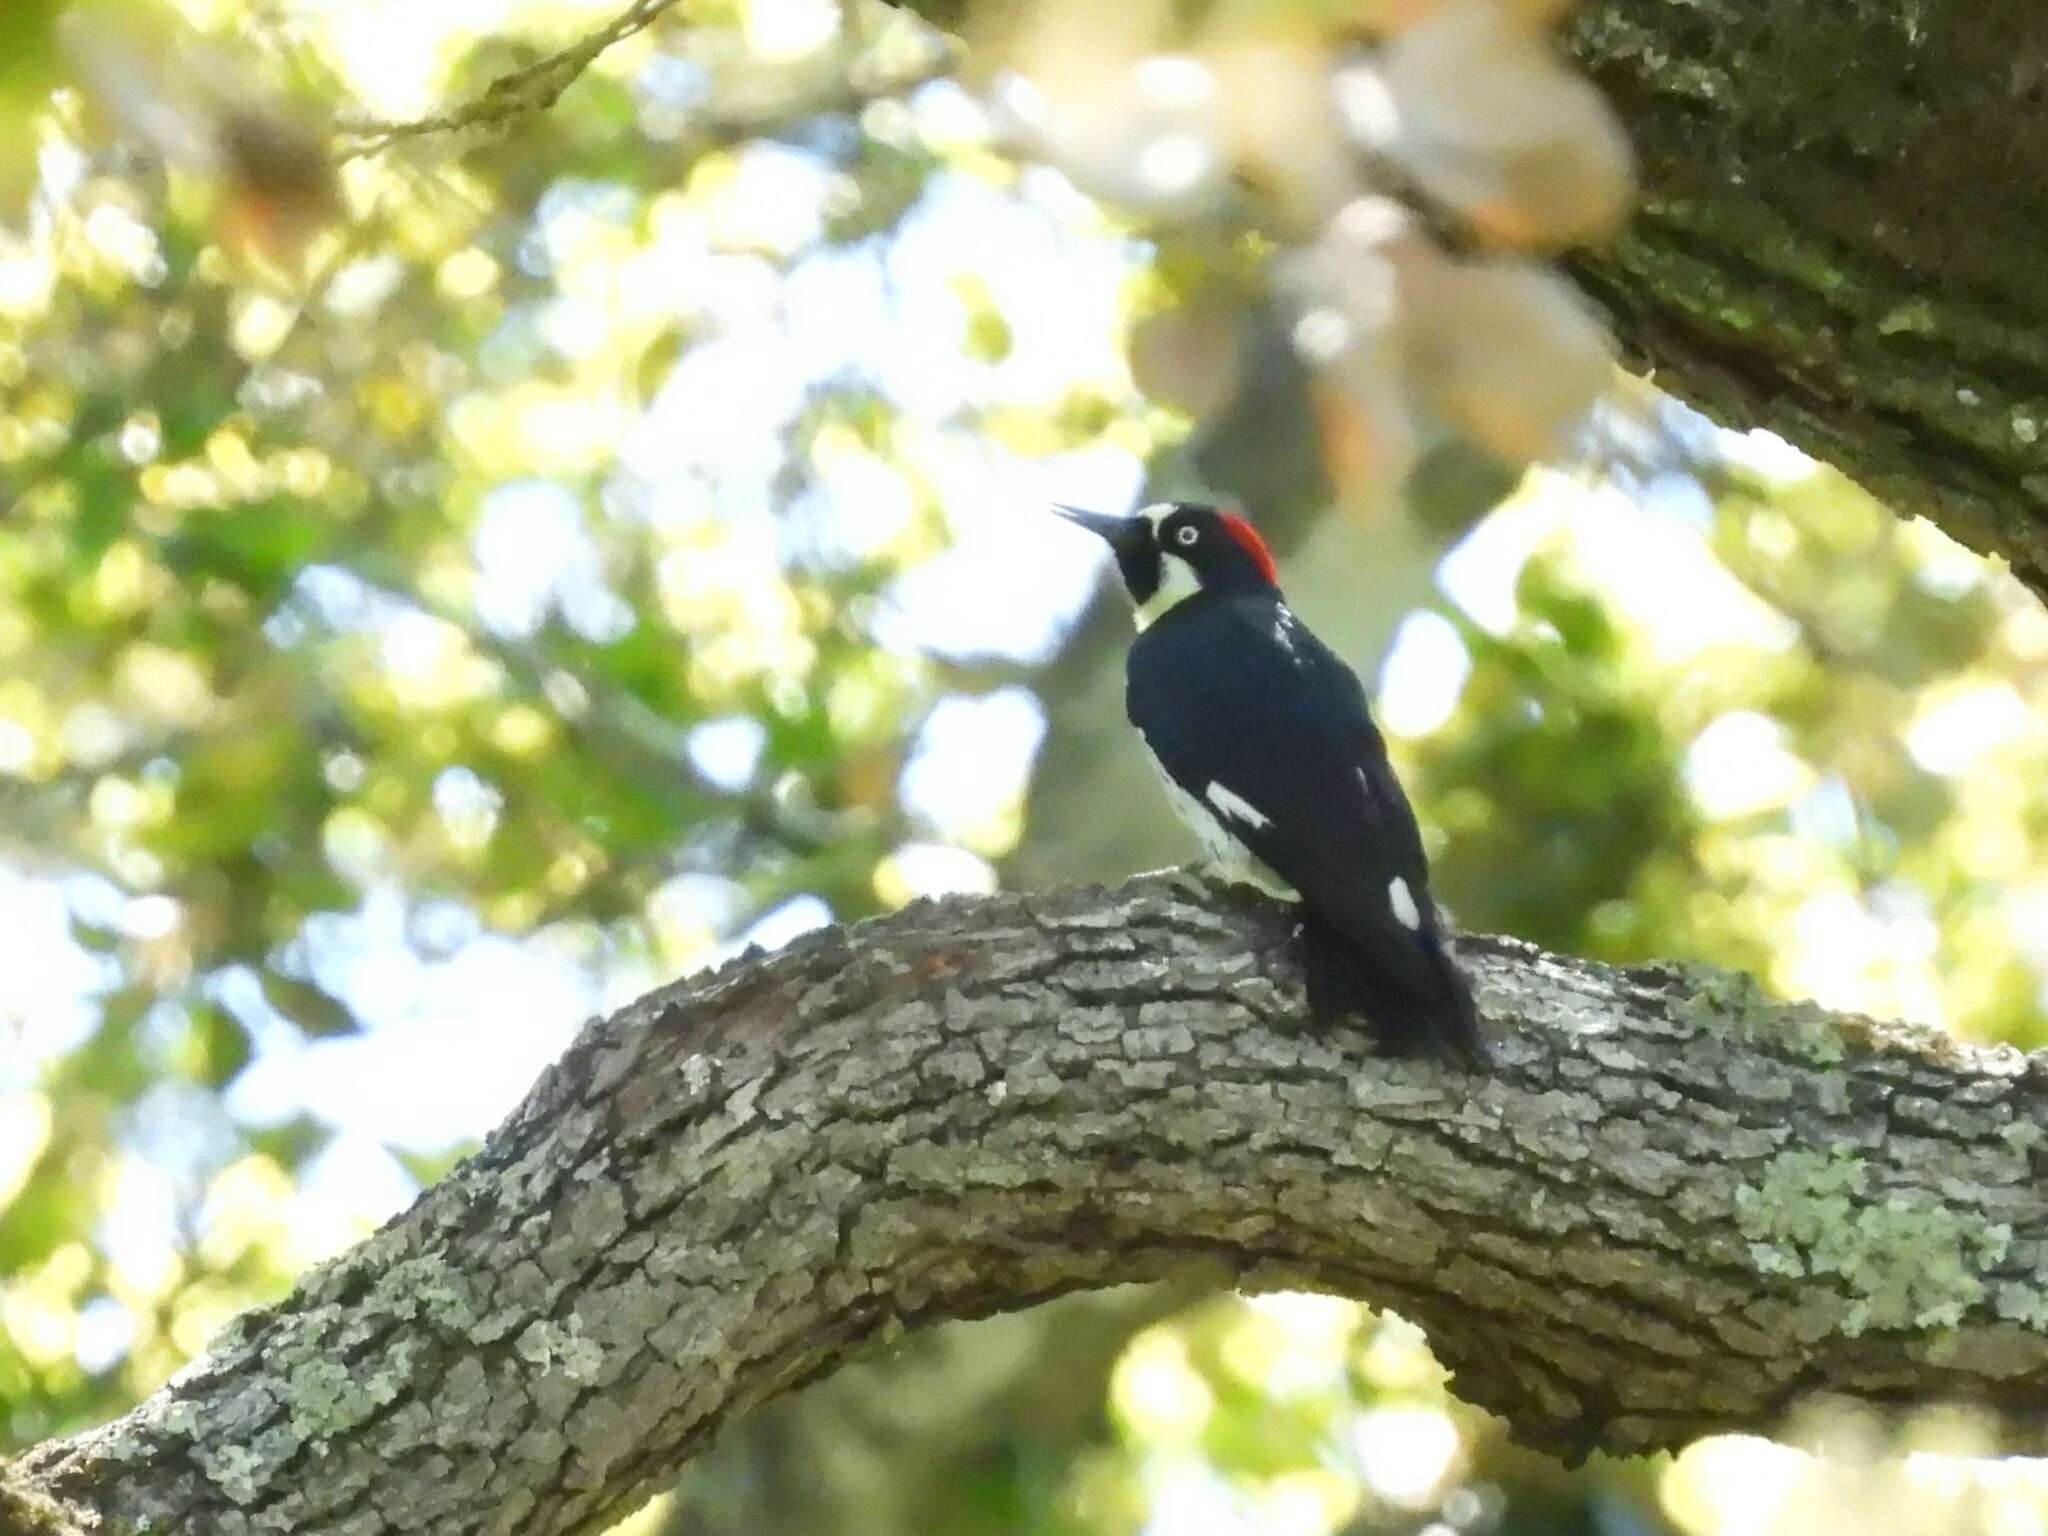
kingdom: Animalia
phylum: Chordata
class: Aves
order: Piciformes
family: Picidae
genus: Melanerpes
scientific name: Melanerpes formicivorus
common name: Acorn woodpecker
